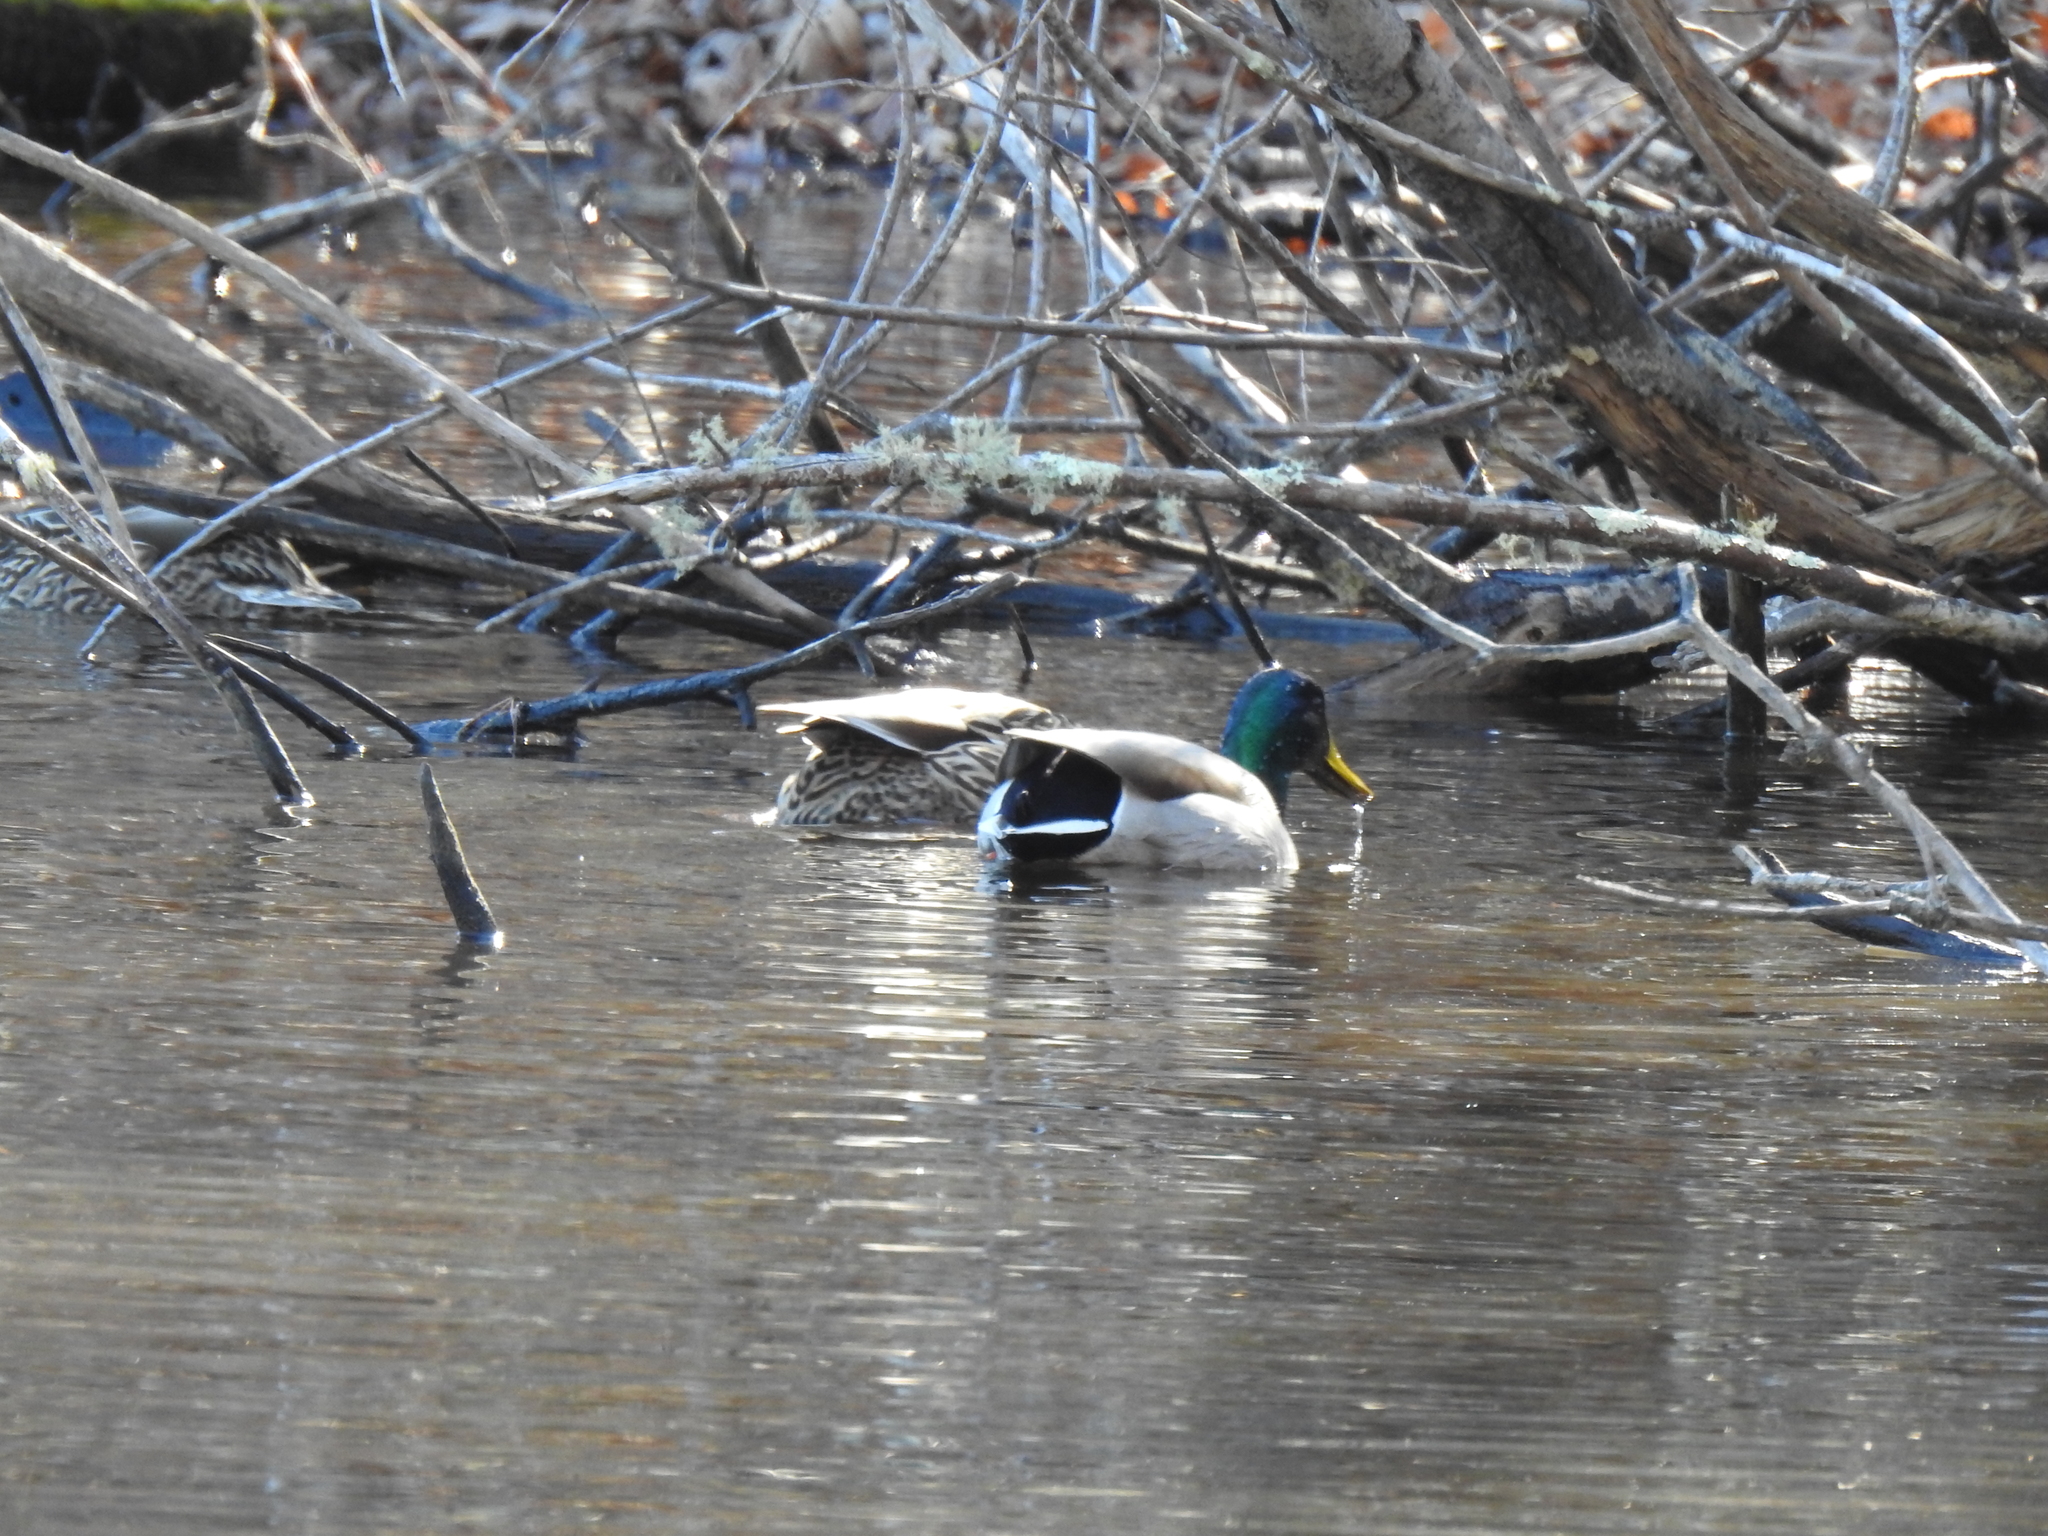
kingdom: Animalia
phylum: Chordata
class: Aves
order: Anseriformes
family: Anatidae
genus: Anas
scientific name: Anas platyrhynchos
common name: Mallard
